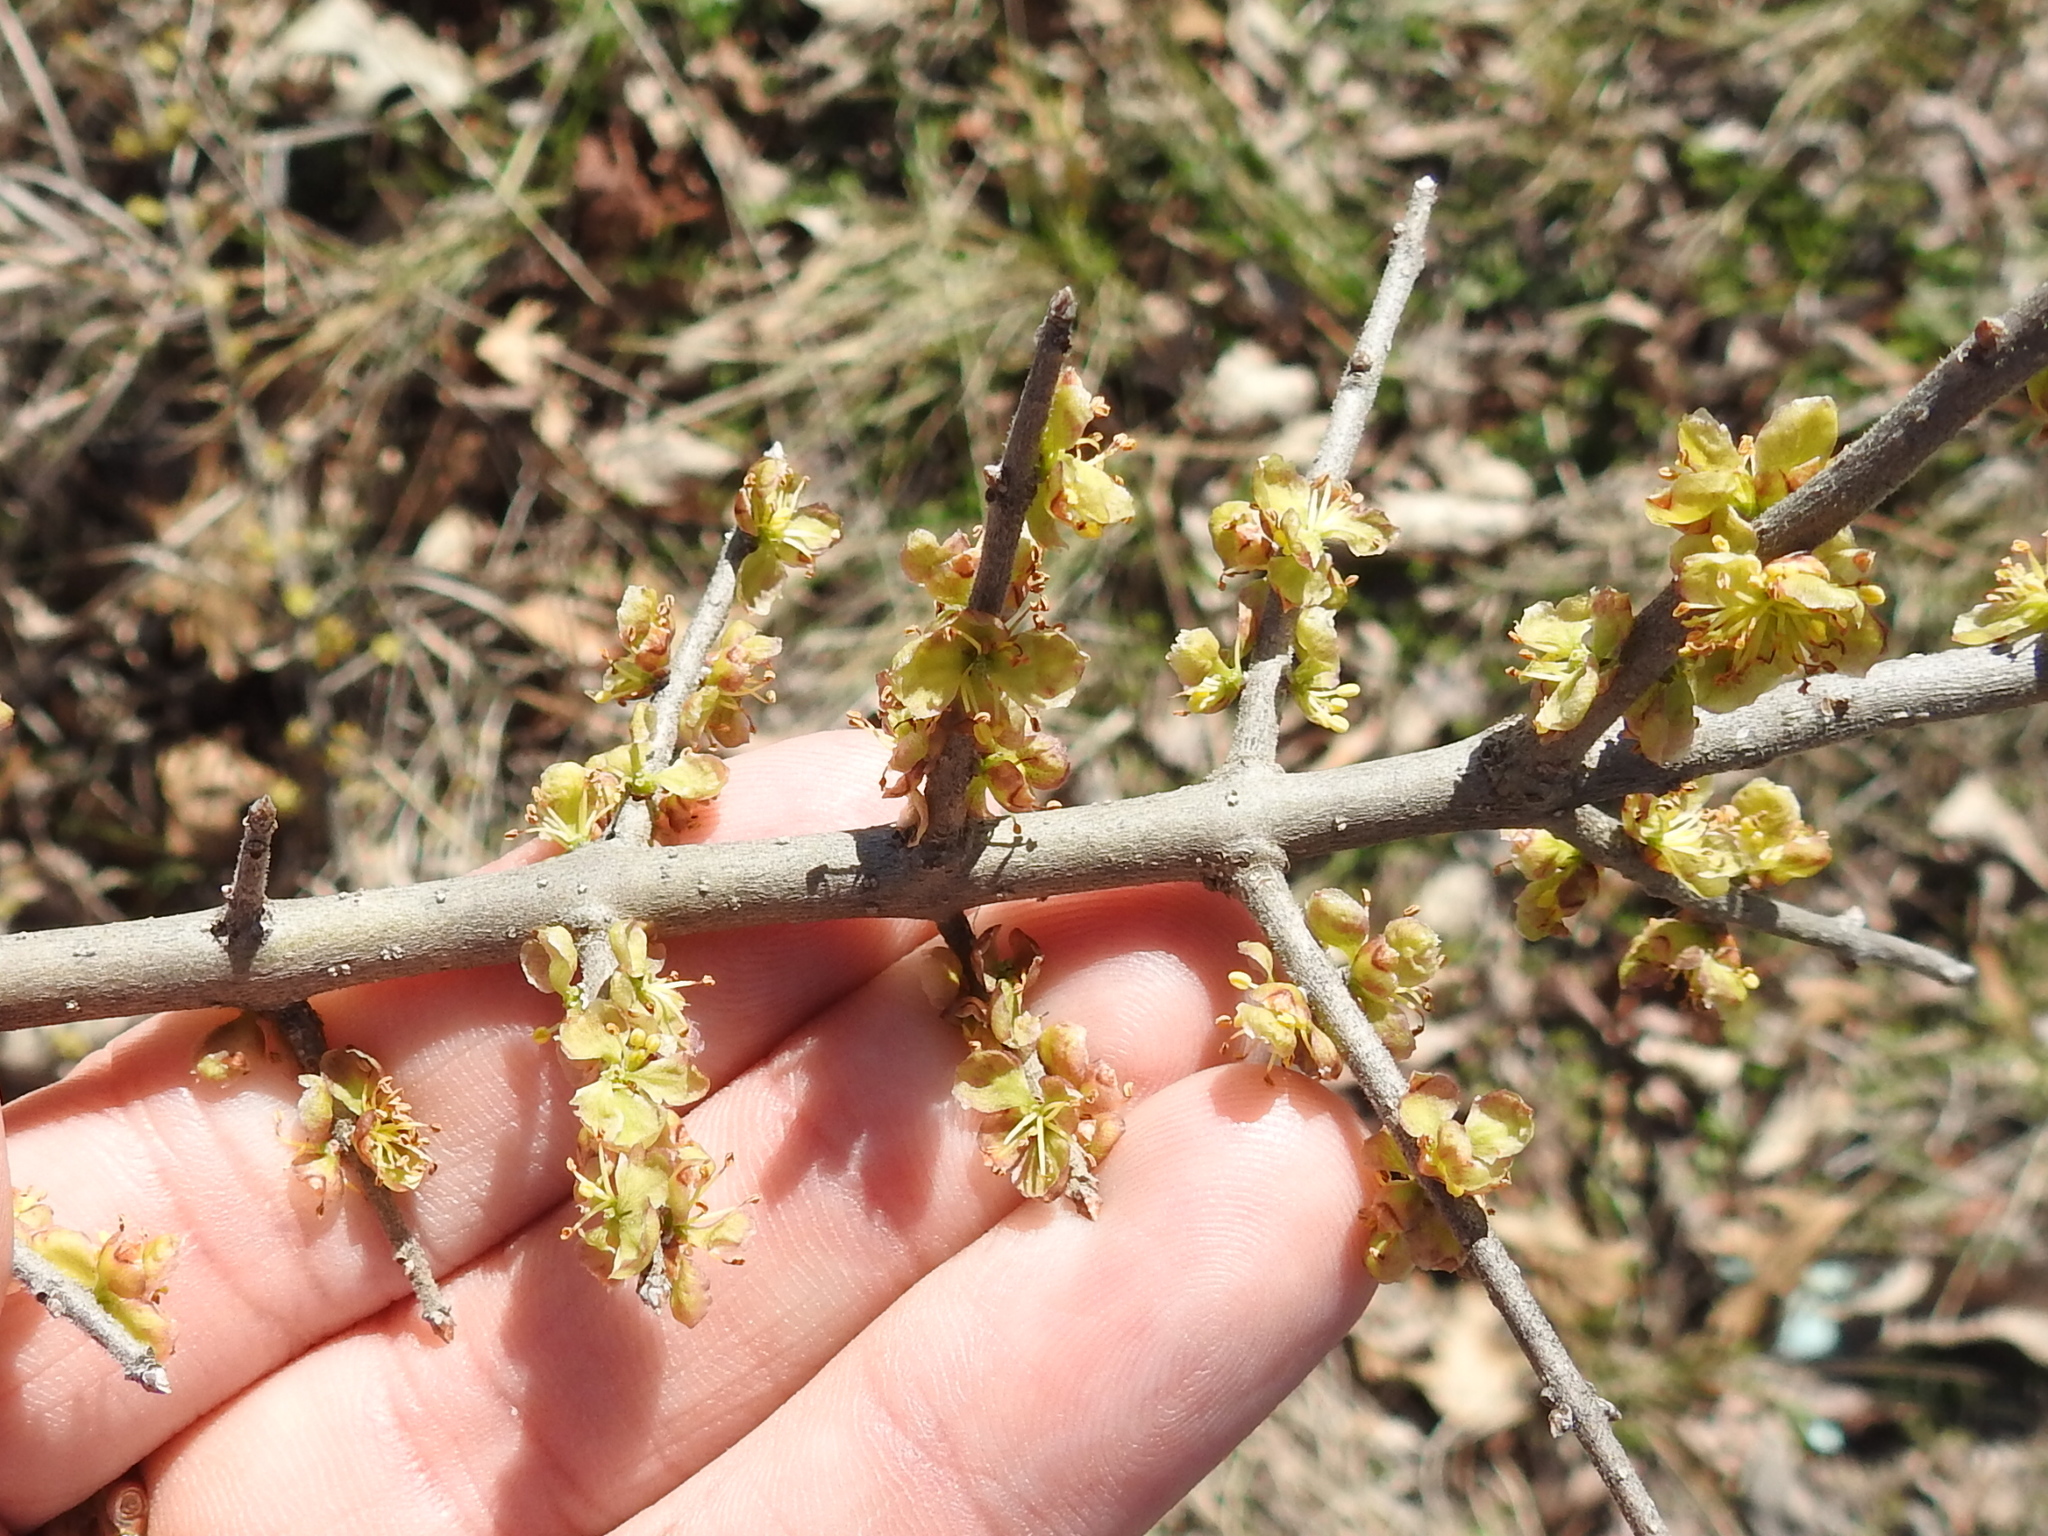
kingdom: Plantae
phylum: Tracheophyta
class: Magnoliopsida
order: Lamiales
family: Oleaceae
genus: Forestiera
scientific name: Forestiera pubescens
